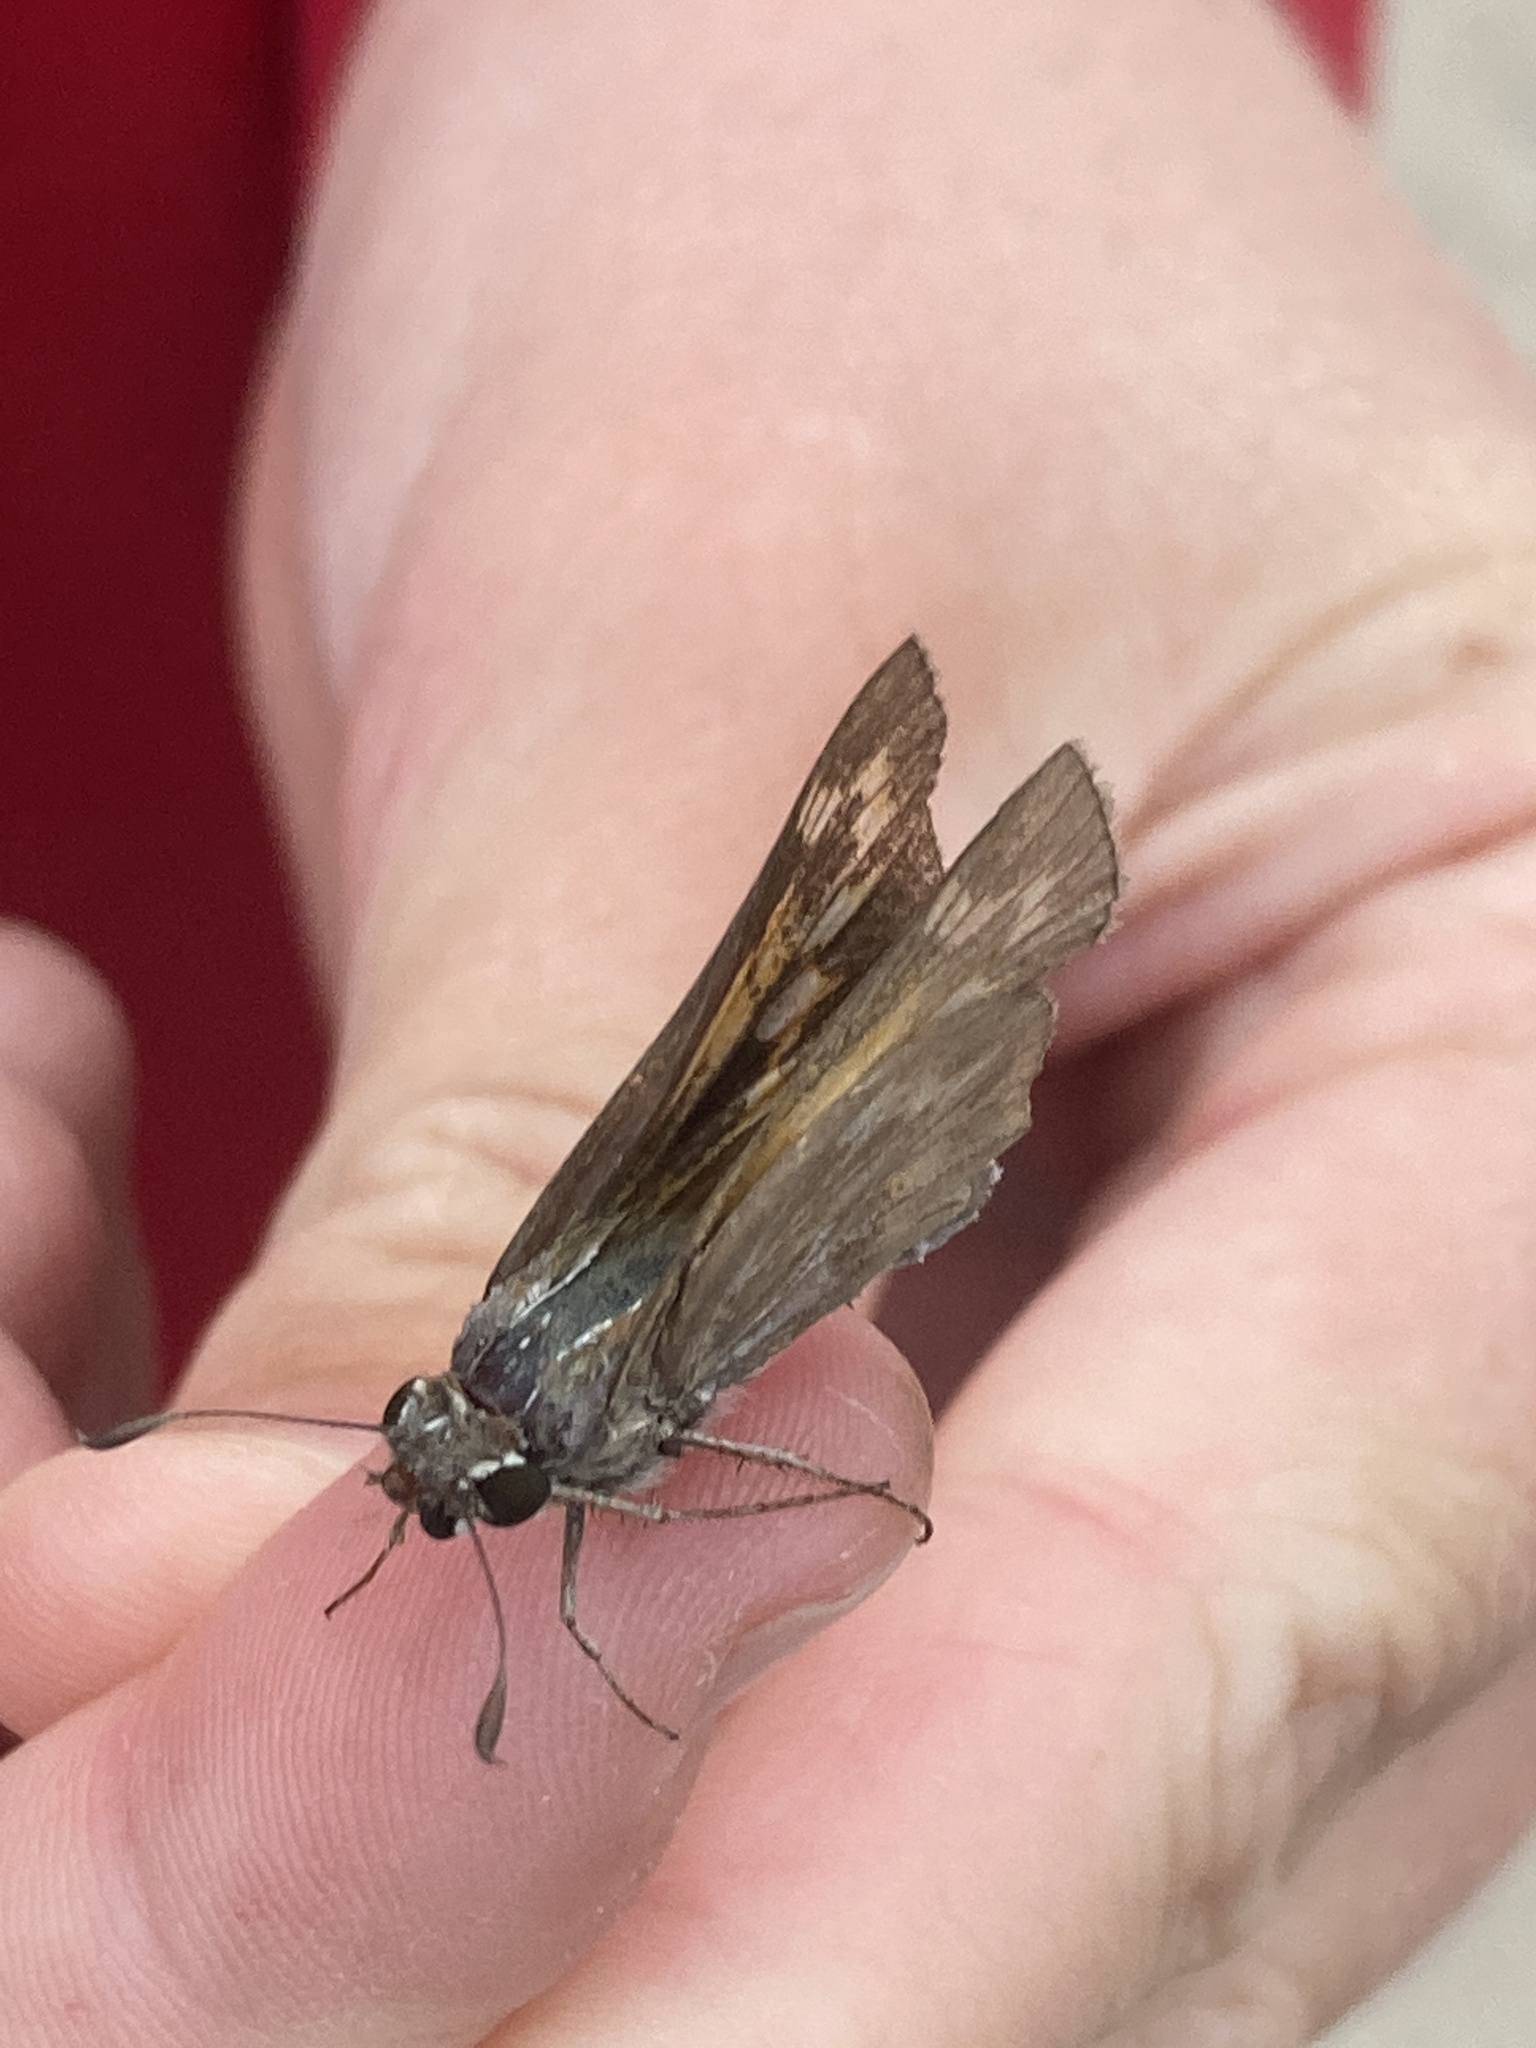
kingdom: Animalia
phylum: Arthropoda
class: Insecta
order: Lepidoptera
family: Hesperiidae
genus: Atalopedes
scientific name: Atalopedes
